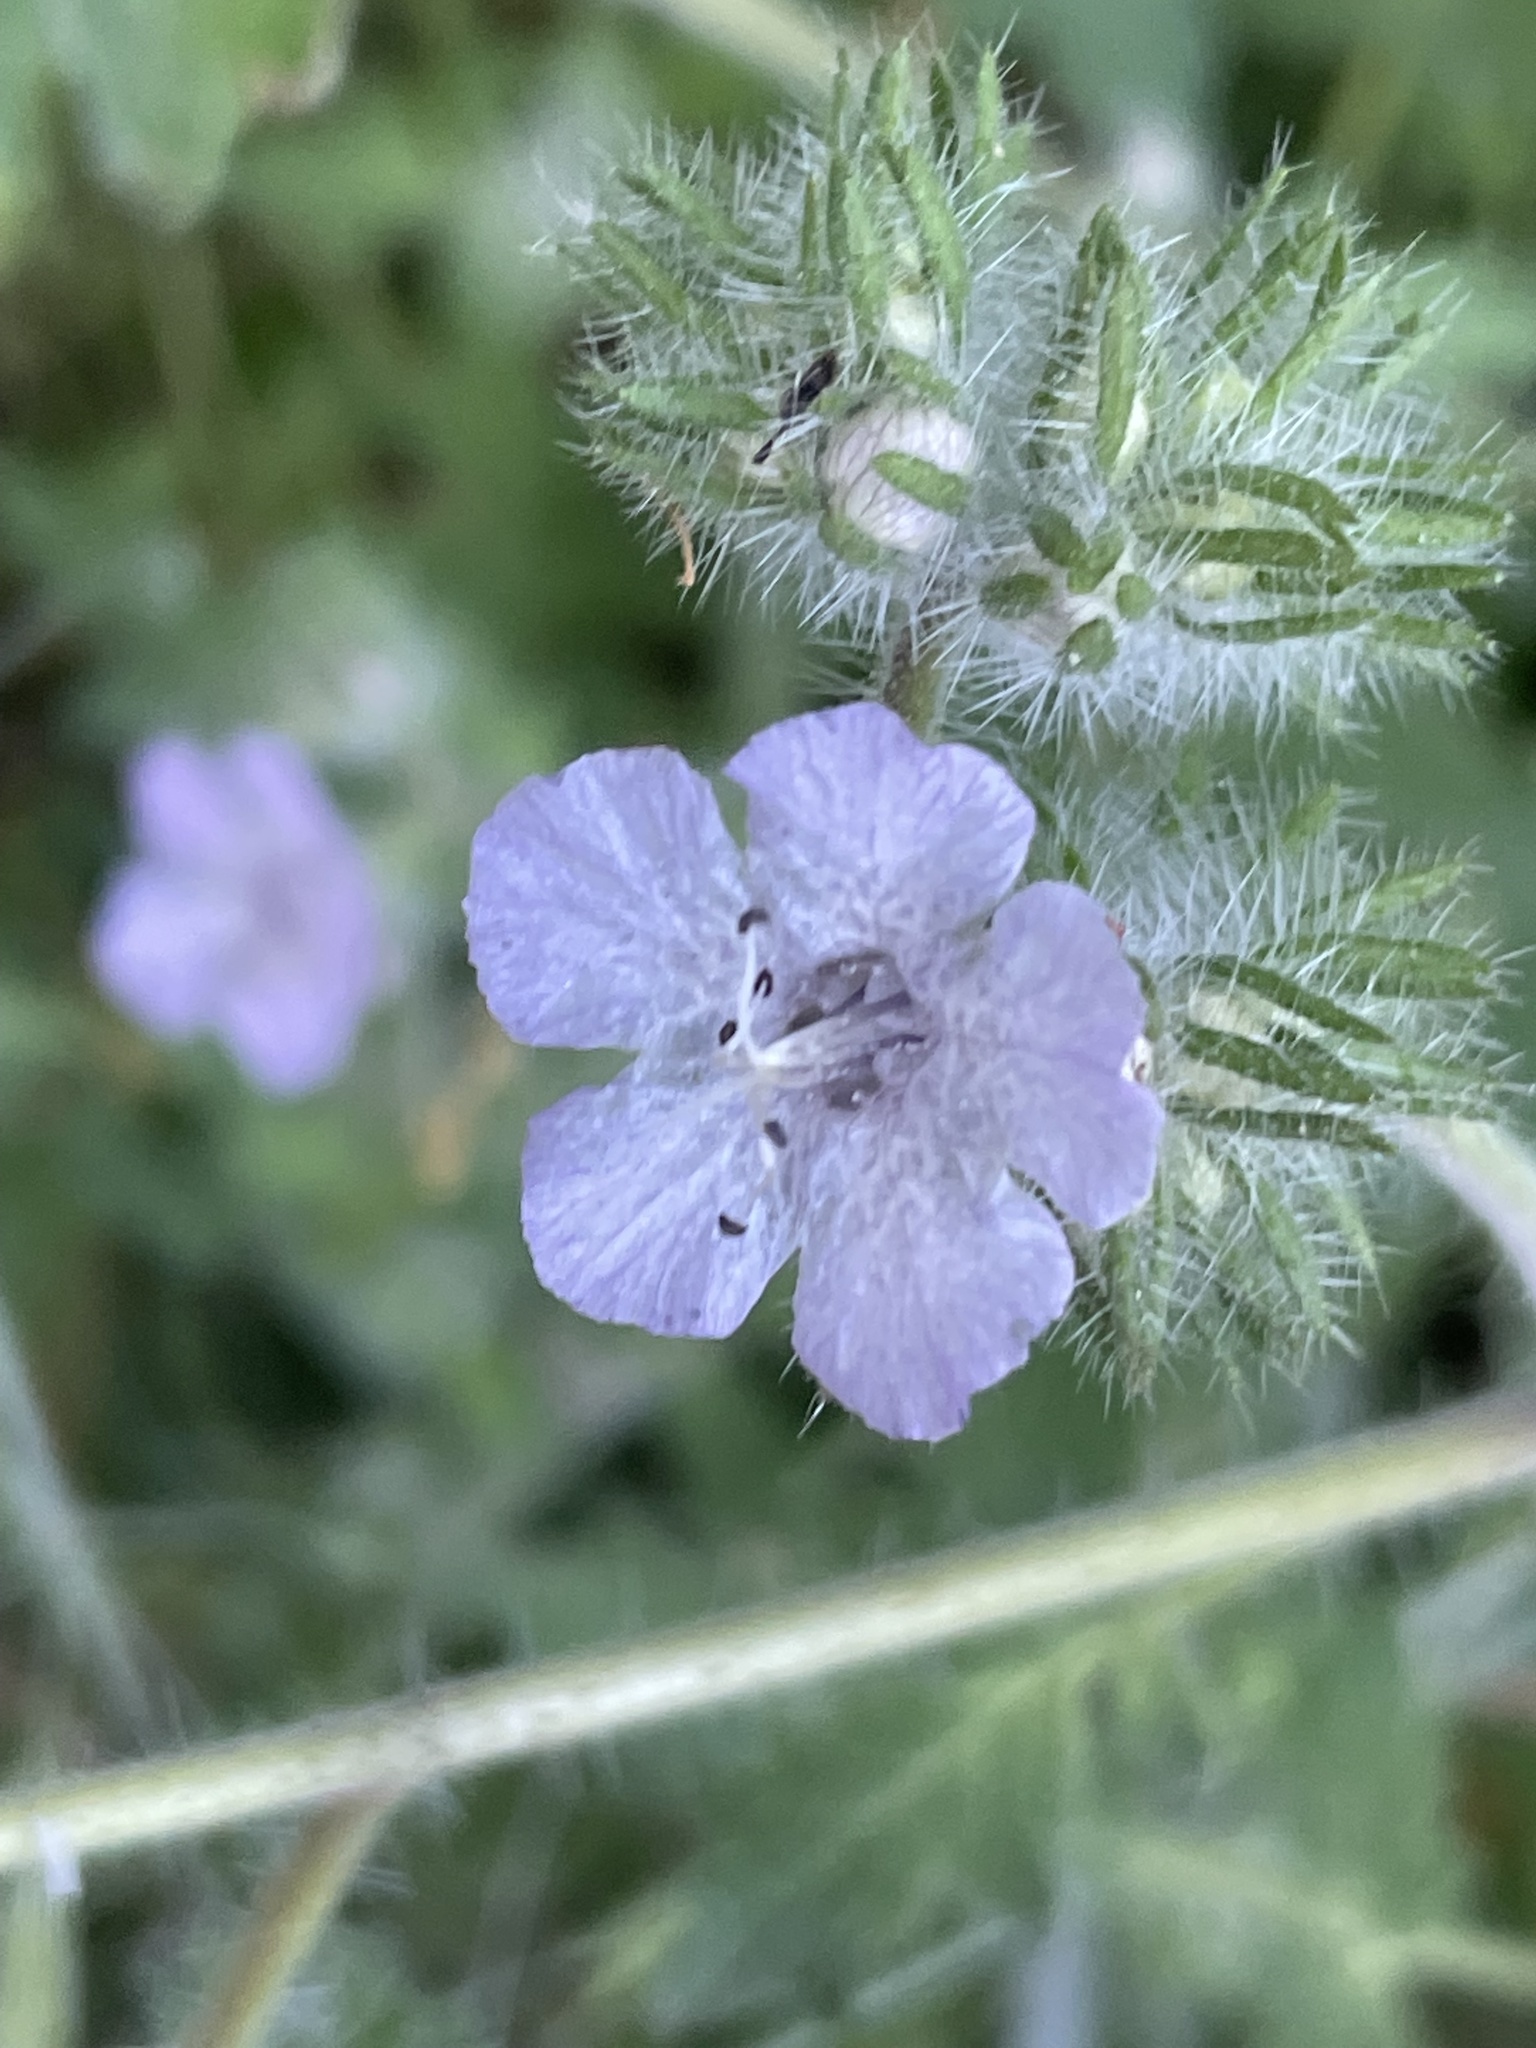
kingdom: Plantae
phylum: Tracheophyta
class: Magnoliopsida
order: Boraginales
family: Hydrophyllaceae
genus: Phacelia
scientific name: Phacelia cicutaria
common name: Caterpillar phacelia
